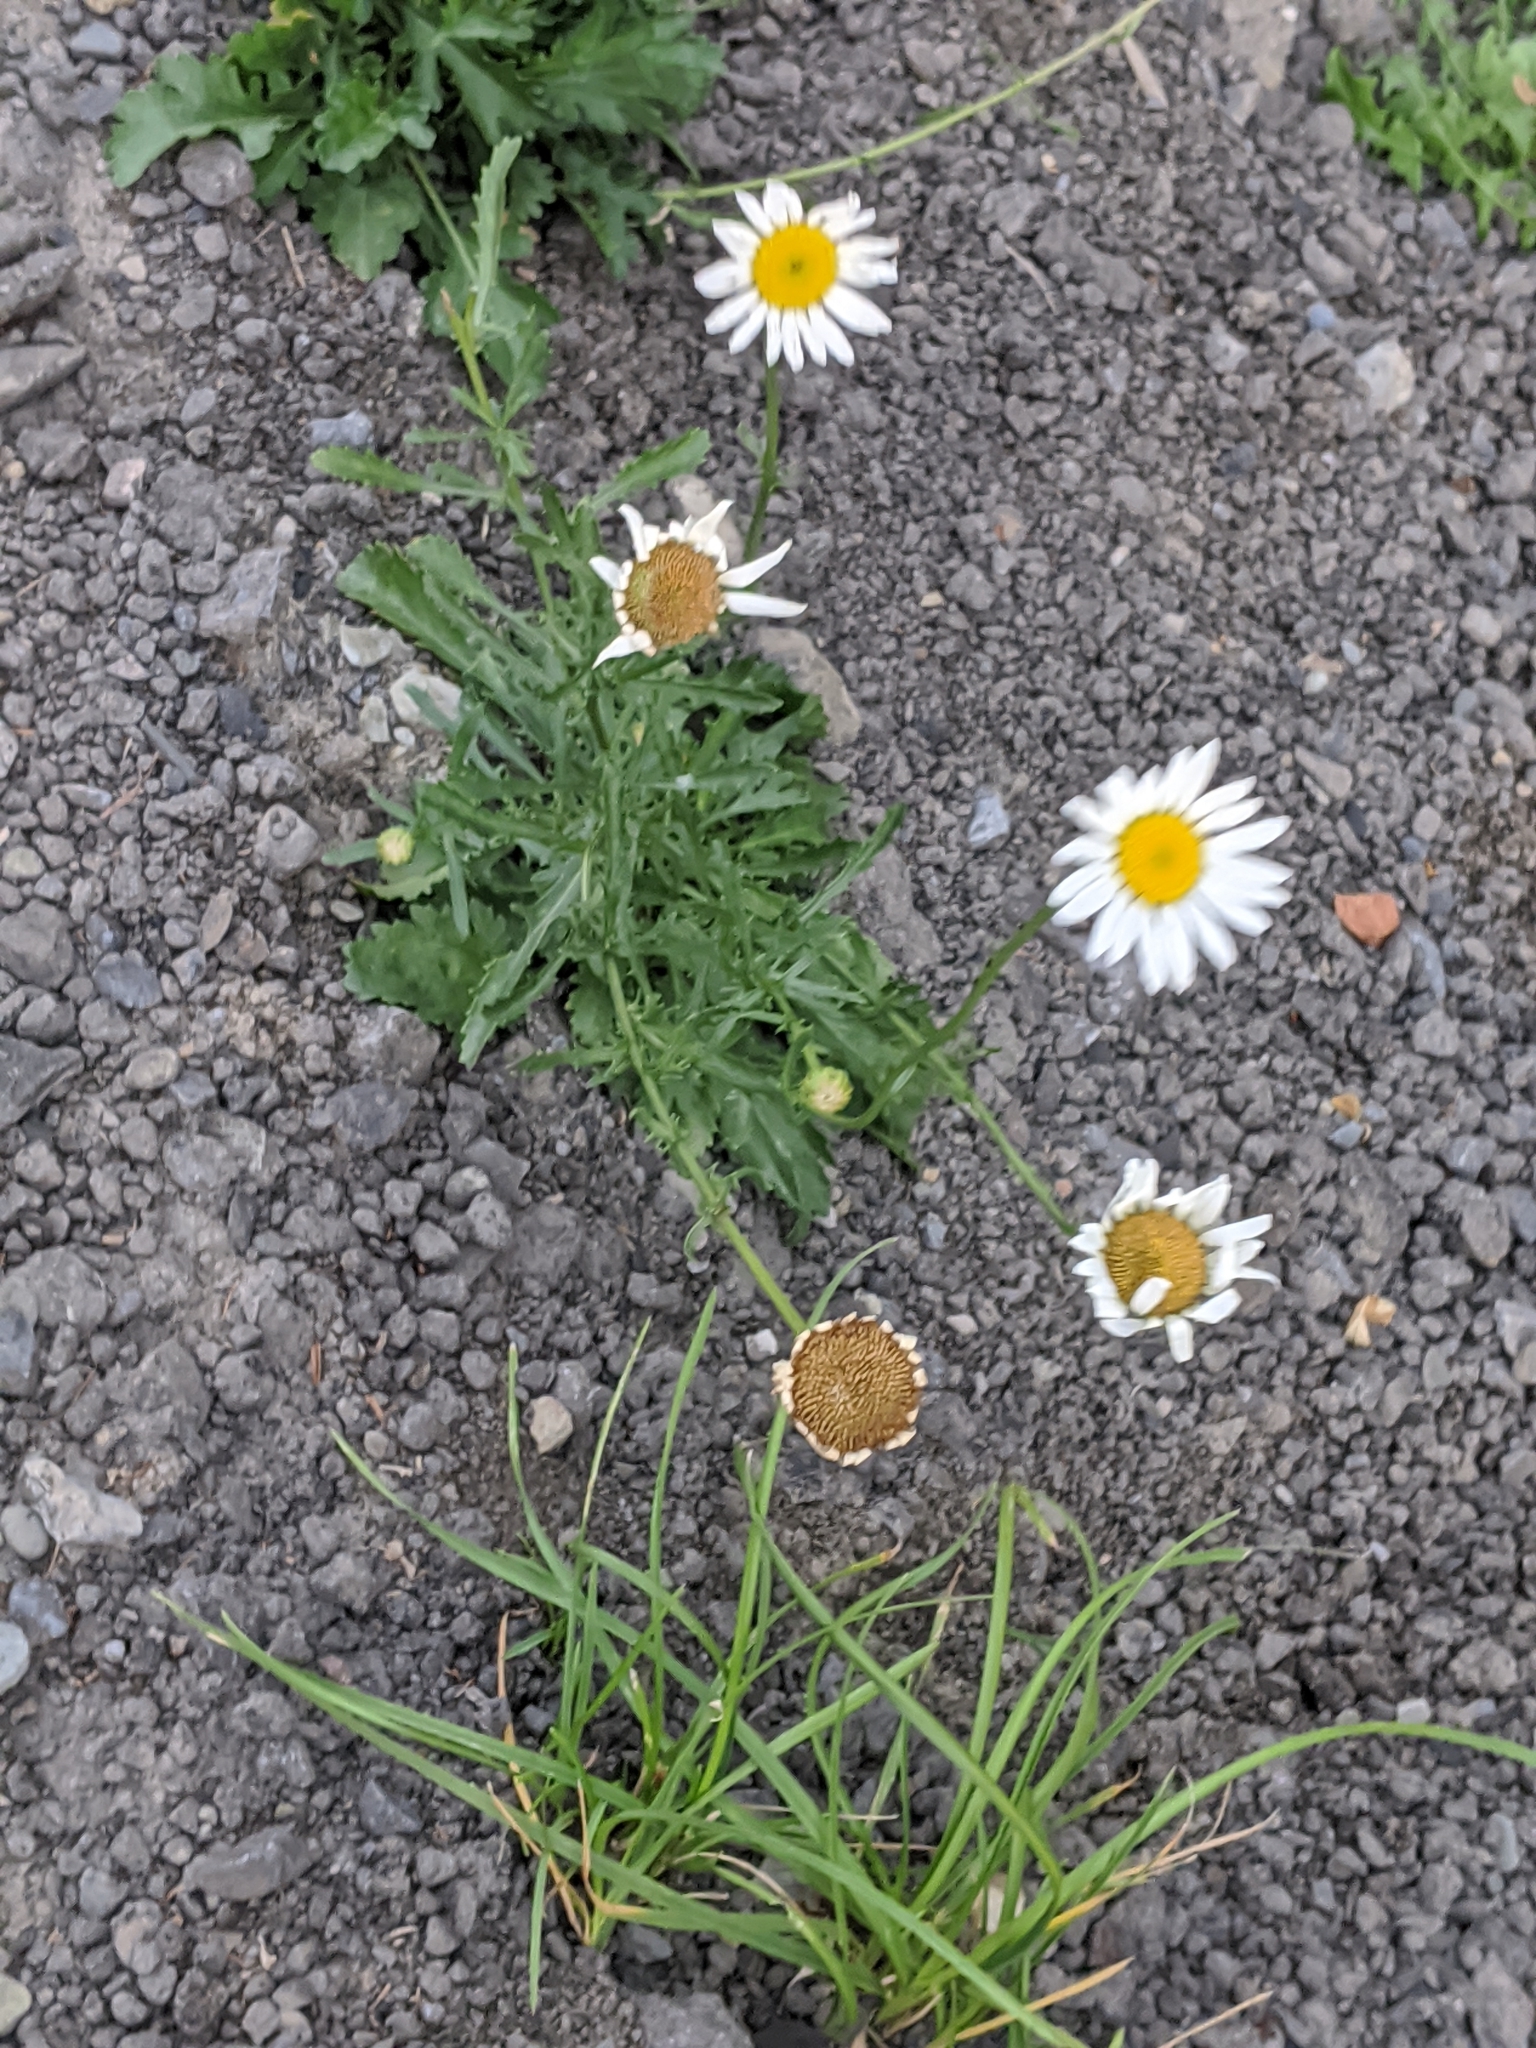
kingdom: Plantae
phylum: Tracheophyta
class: Magnoliopsida
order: Asterales
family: Asteraceae
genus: Leucanthemum
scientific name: Leucanthemum vulgare
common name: Oxeye daisy
